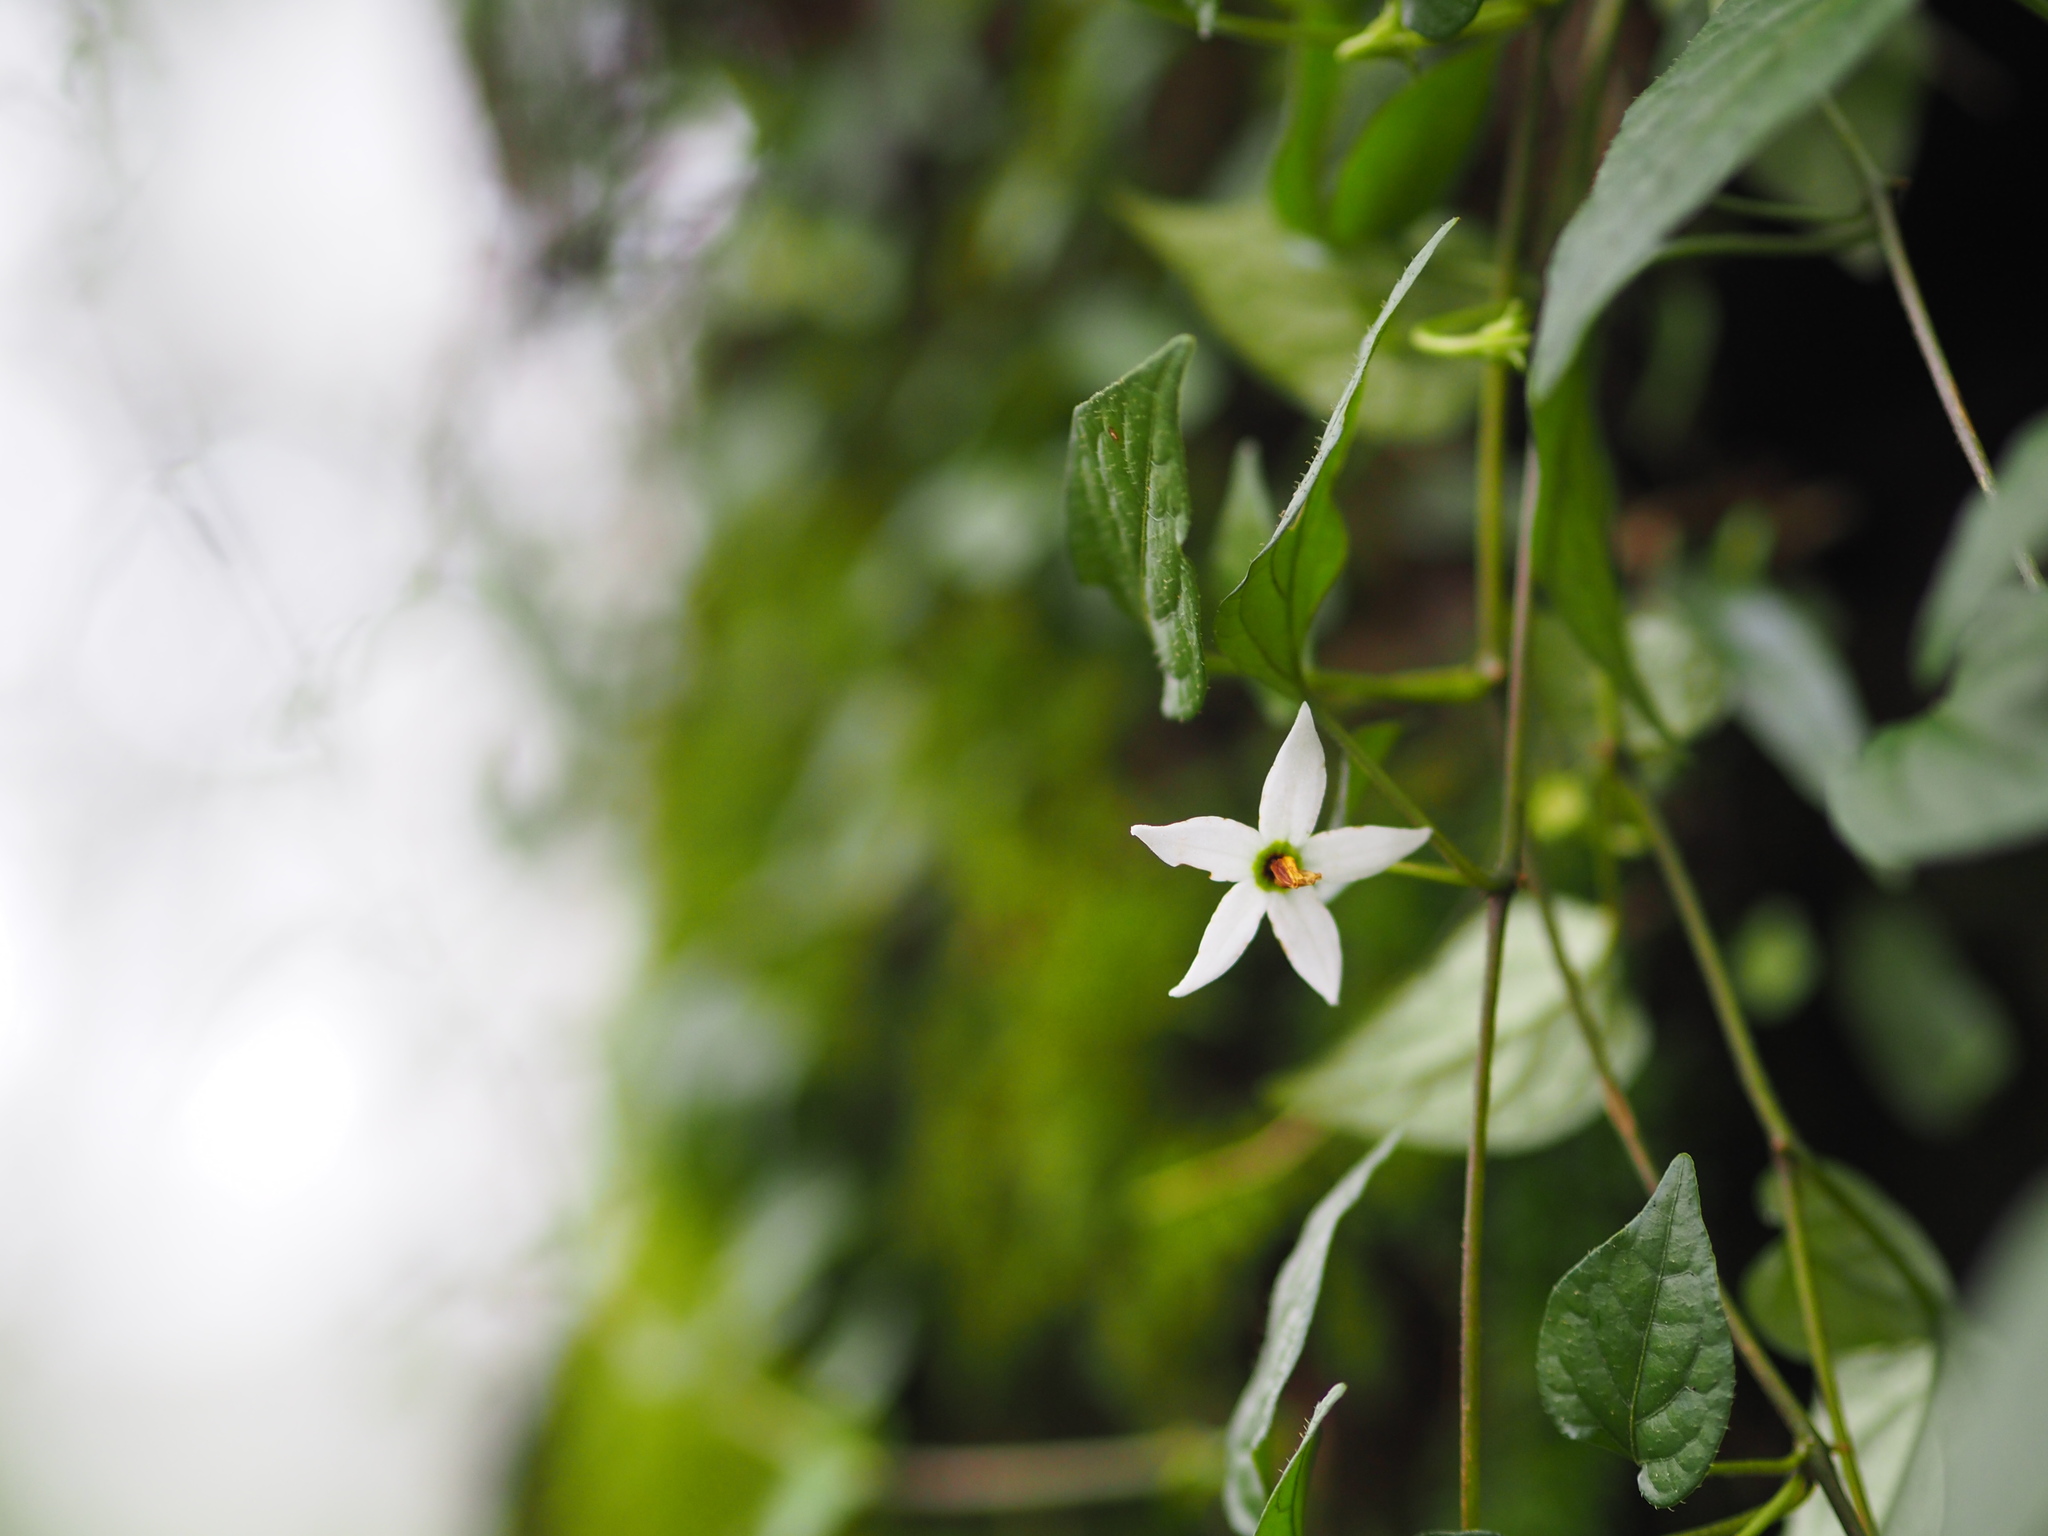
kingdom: Plantae
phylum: Tracheophyta
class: Magnoliopsida
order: Solanales
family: Solanaceae
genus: Lycianthes
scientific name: Lycianthes lysimachioides
